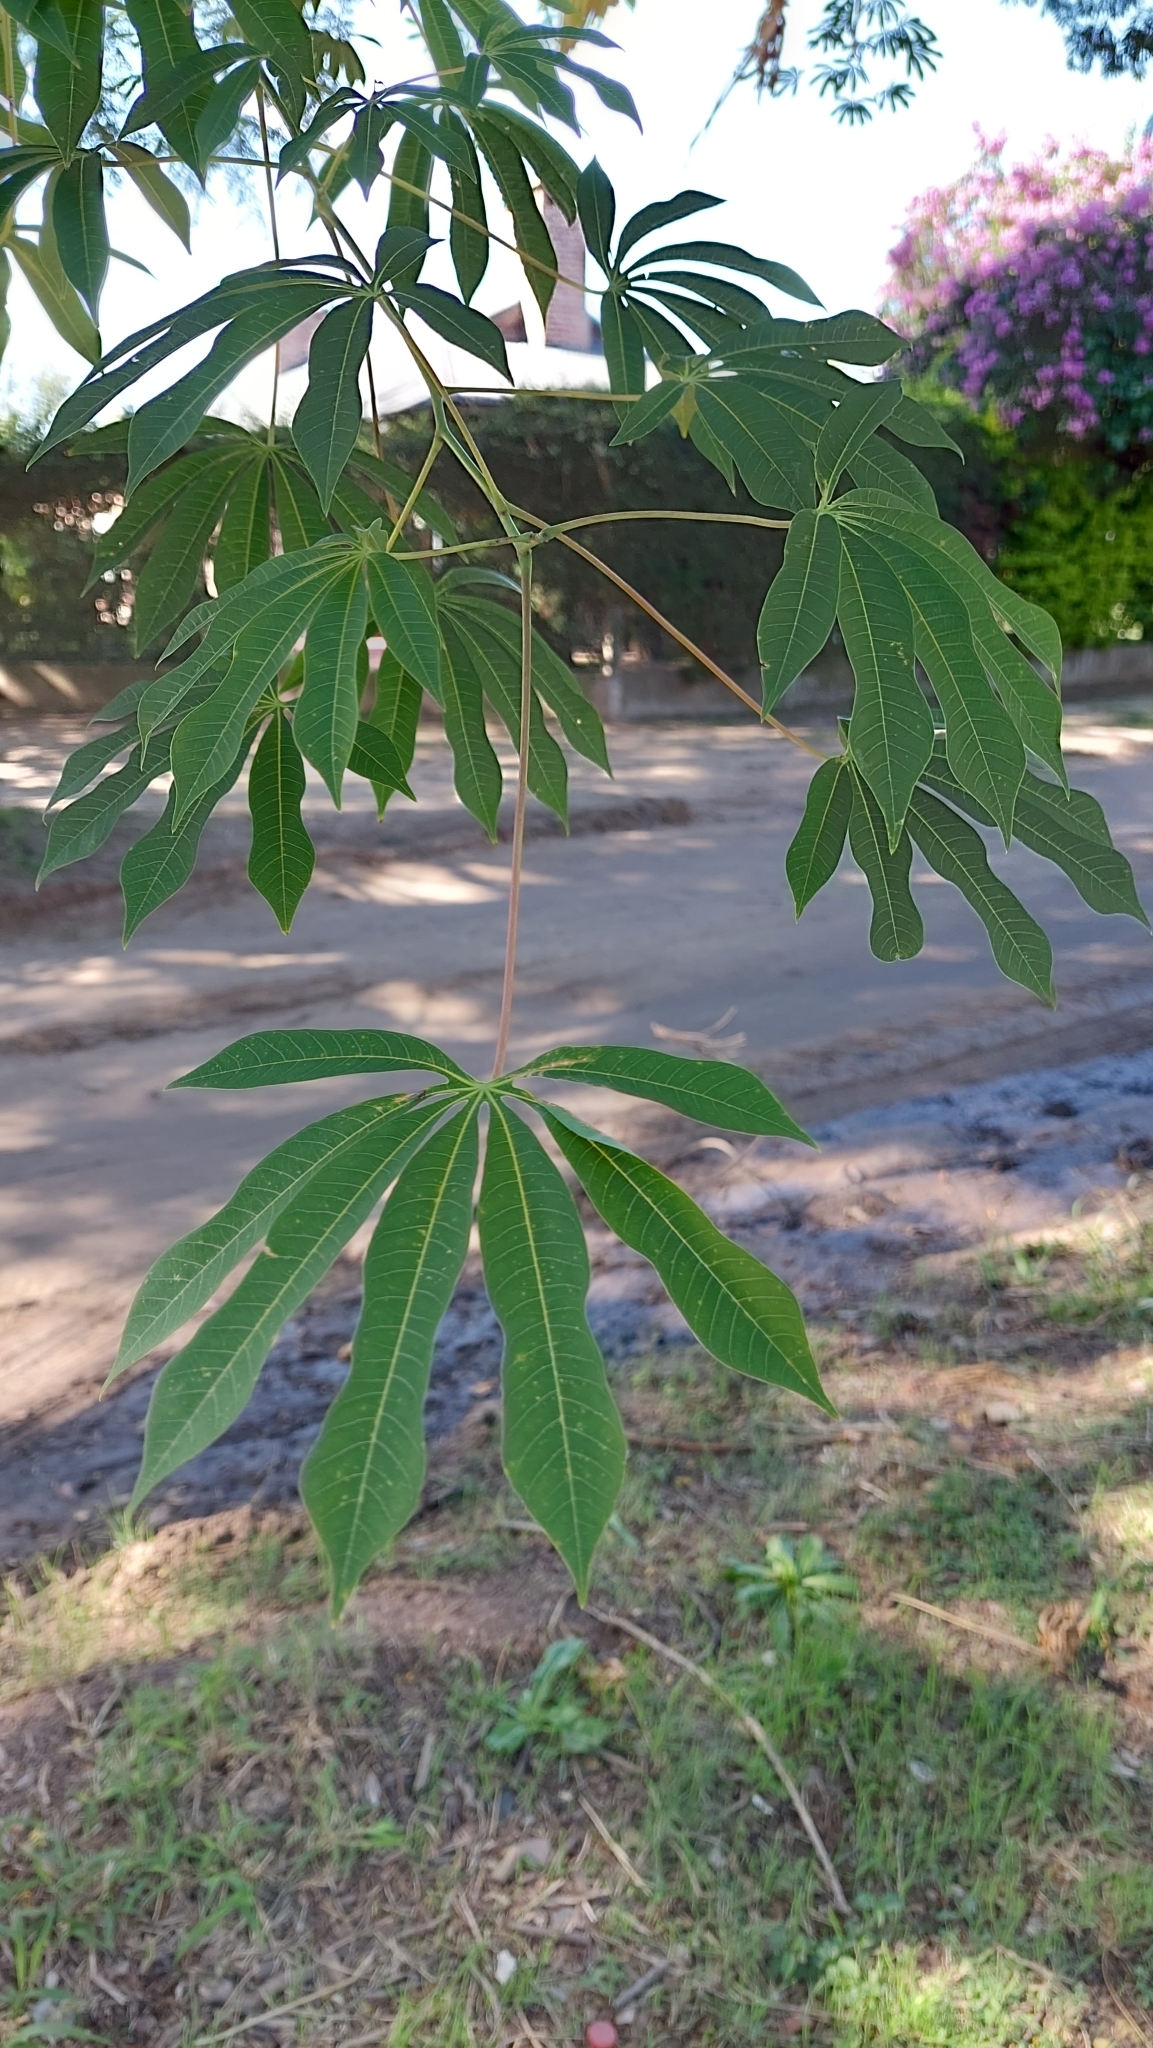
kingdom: Plantae
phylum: Tracheophyta
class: Magnoliopsida
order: Malpighiales
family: Euphorbiaceae
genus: Manihot
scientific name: Manihot grahamii
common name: Graham's manihot
